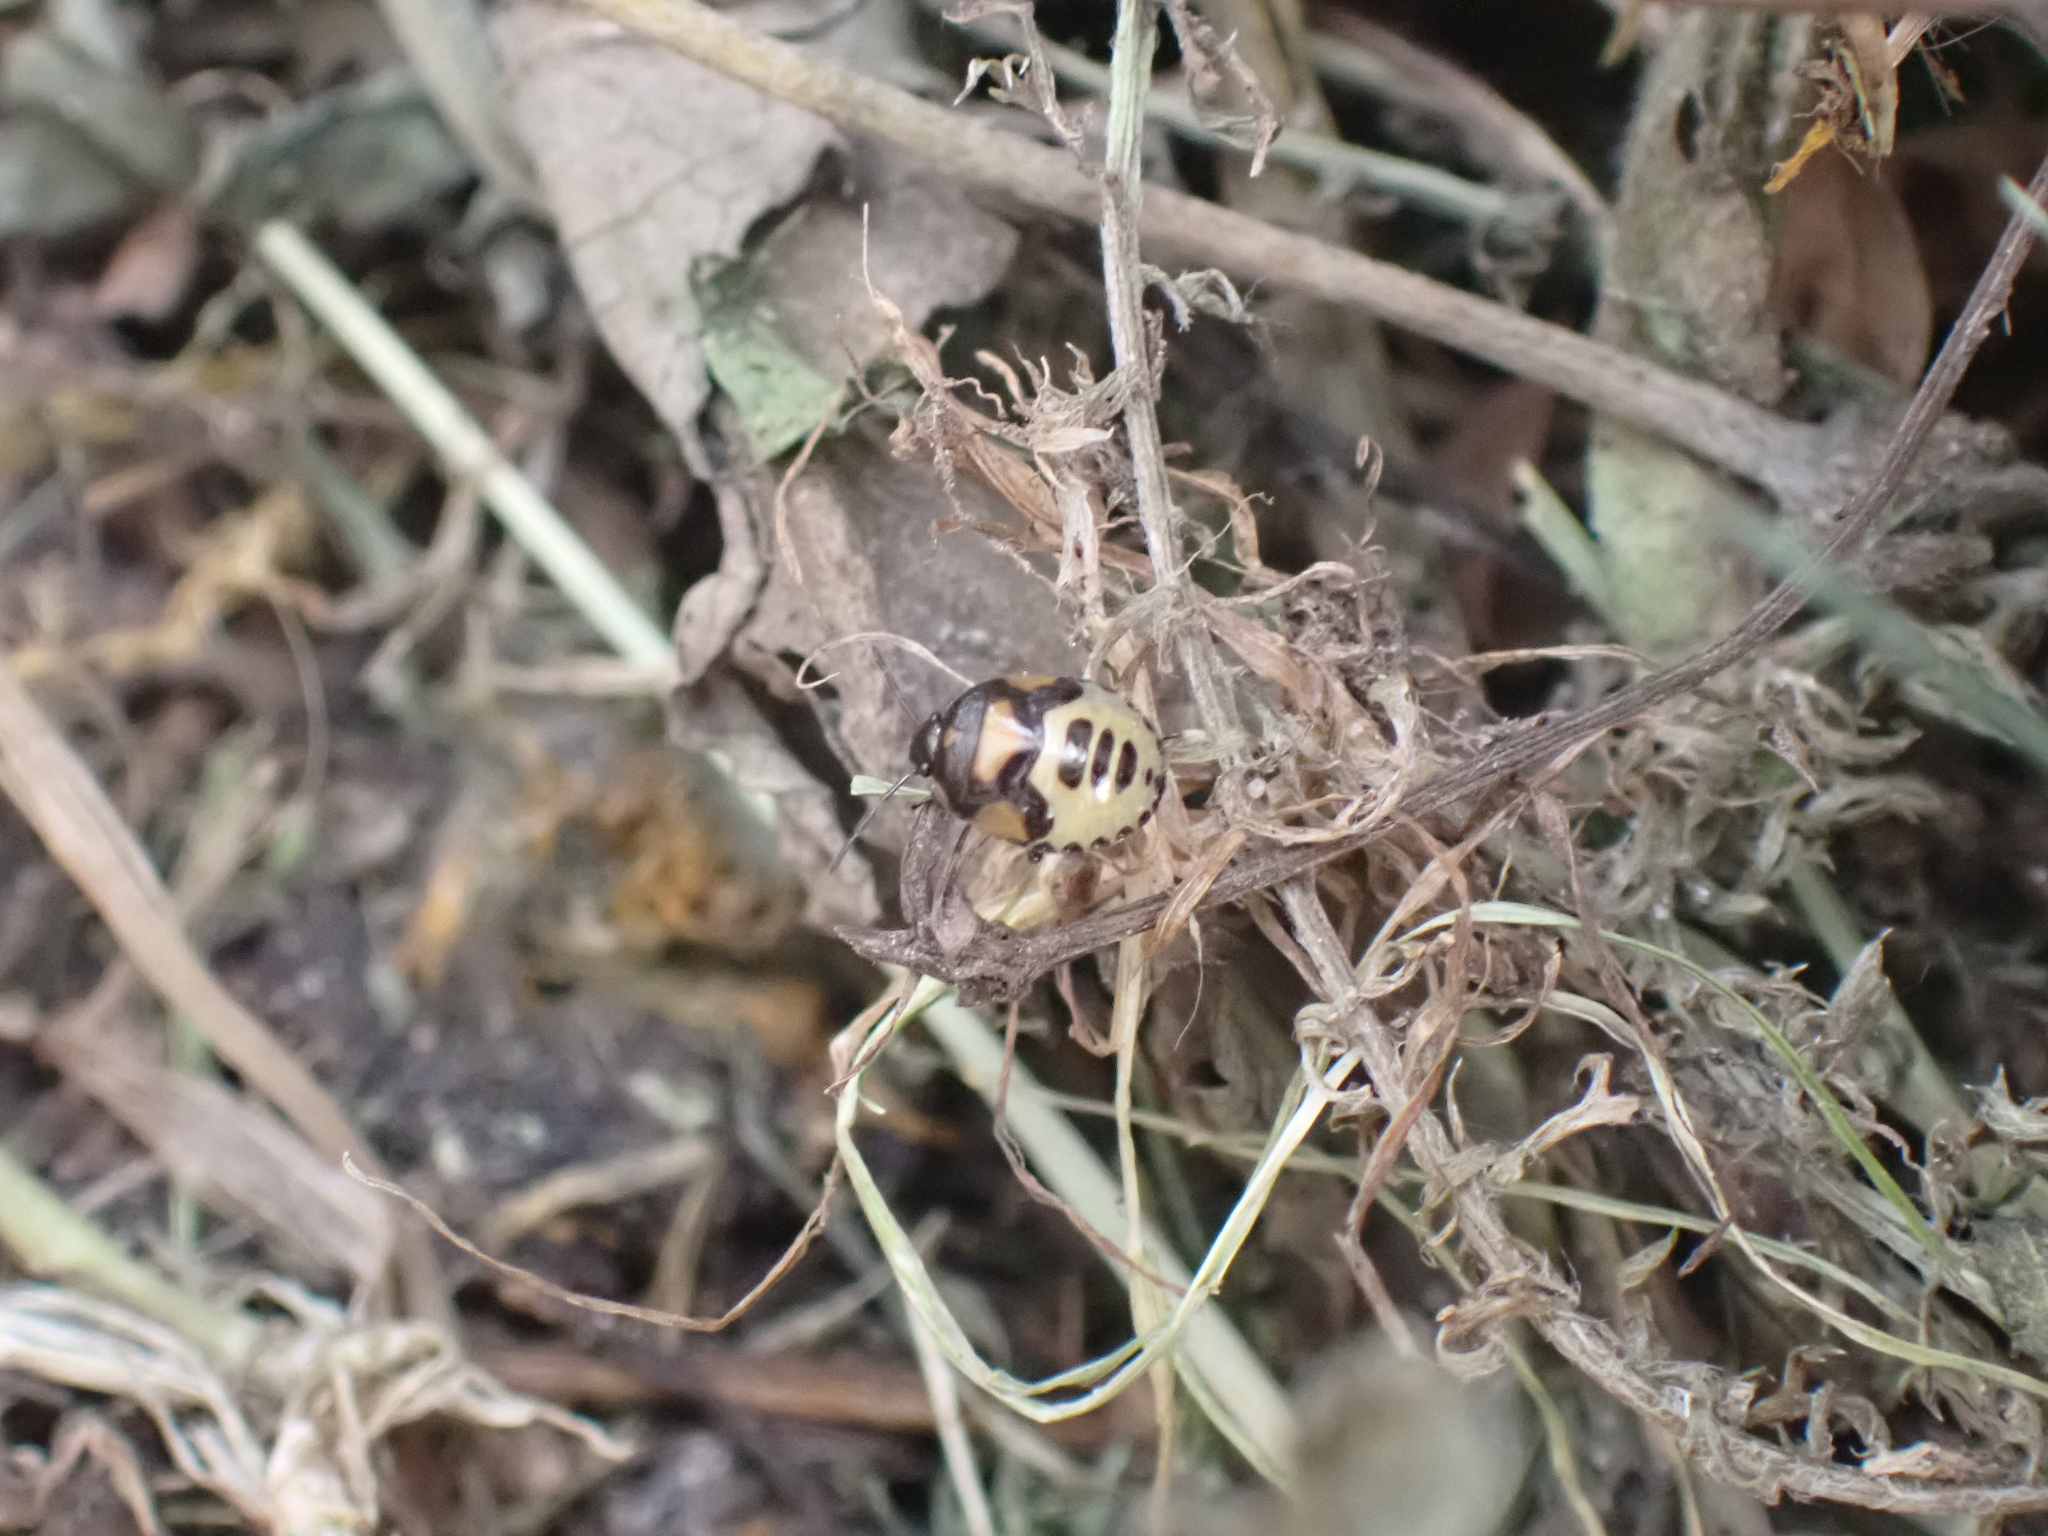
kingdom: Animalia
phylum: Arthropoda
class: Insecta
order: Hemiptera
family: Cydnidae
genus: Tritomegas
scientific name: Tritomegas bicolor
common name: Pied shieldbug
